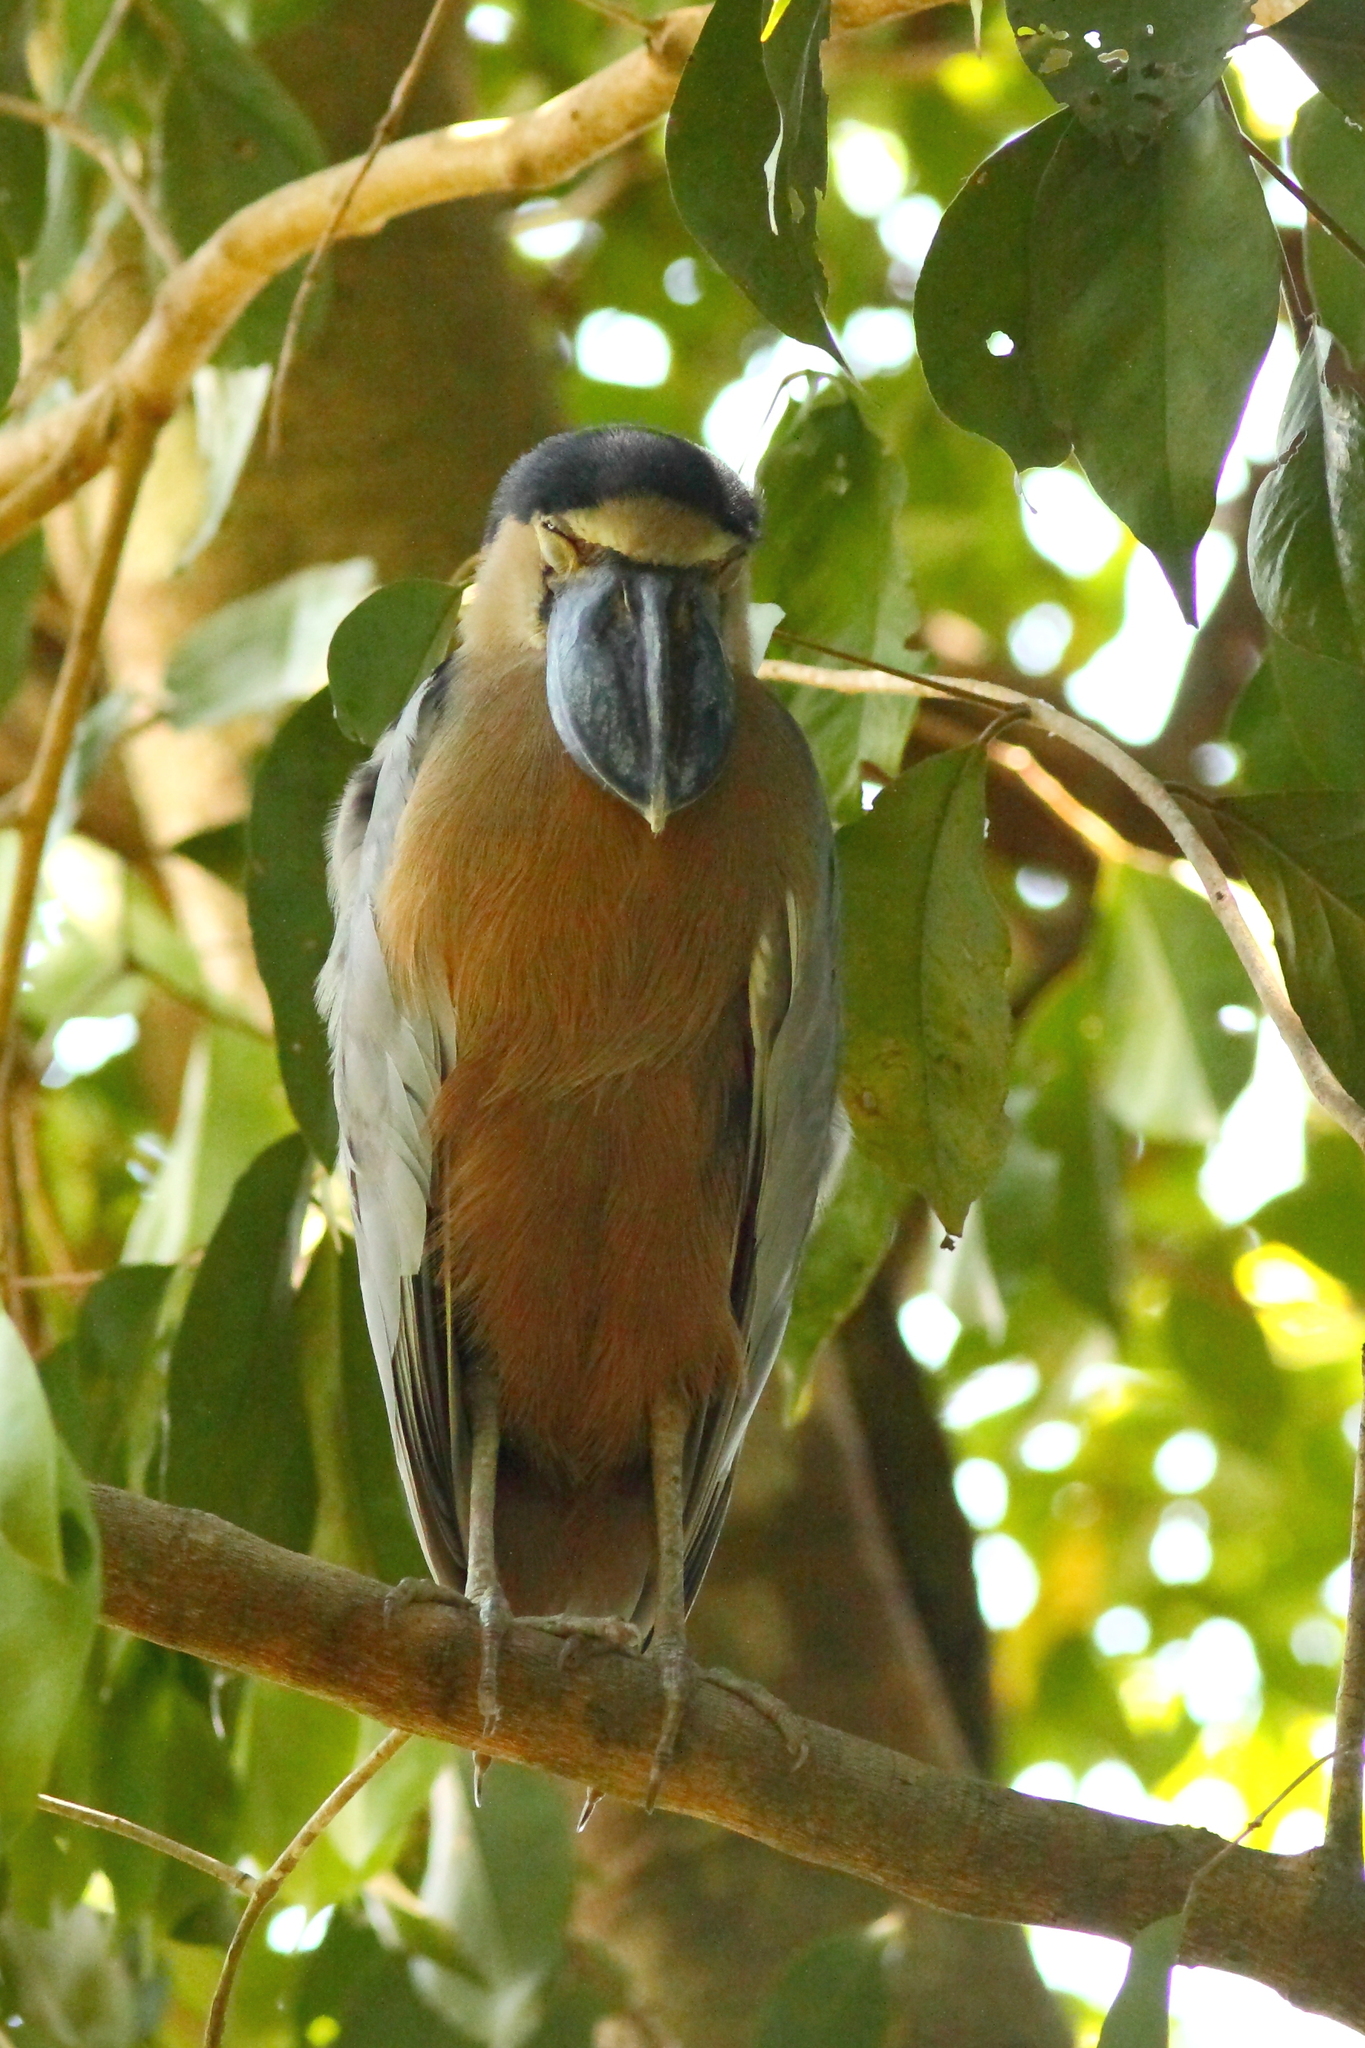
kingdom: Animalia
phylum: Chordata
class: Aves
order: Pelecaniformes
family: Ardeidae
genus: Cochlearius
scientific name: Cochlearius cochlearius
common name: Boat-billed heron
